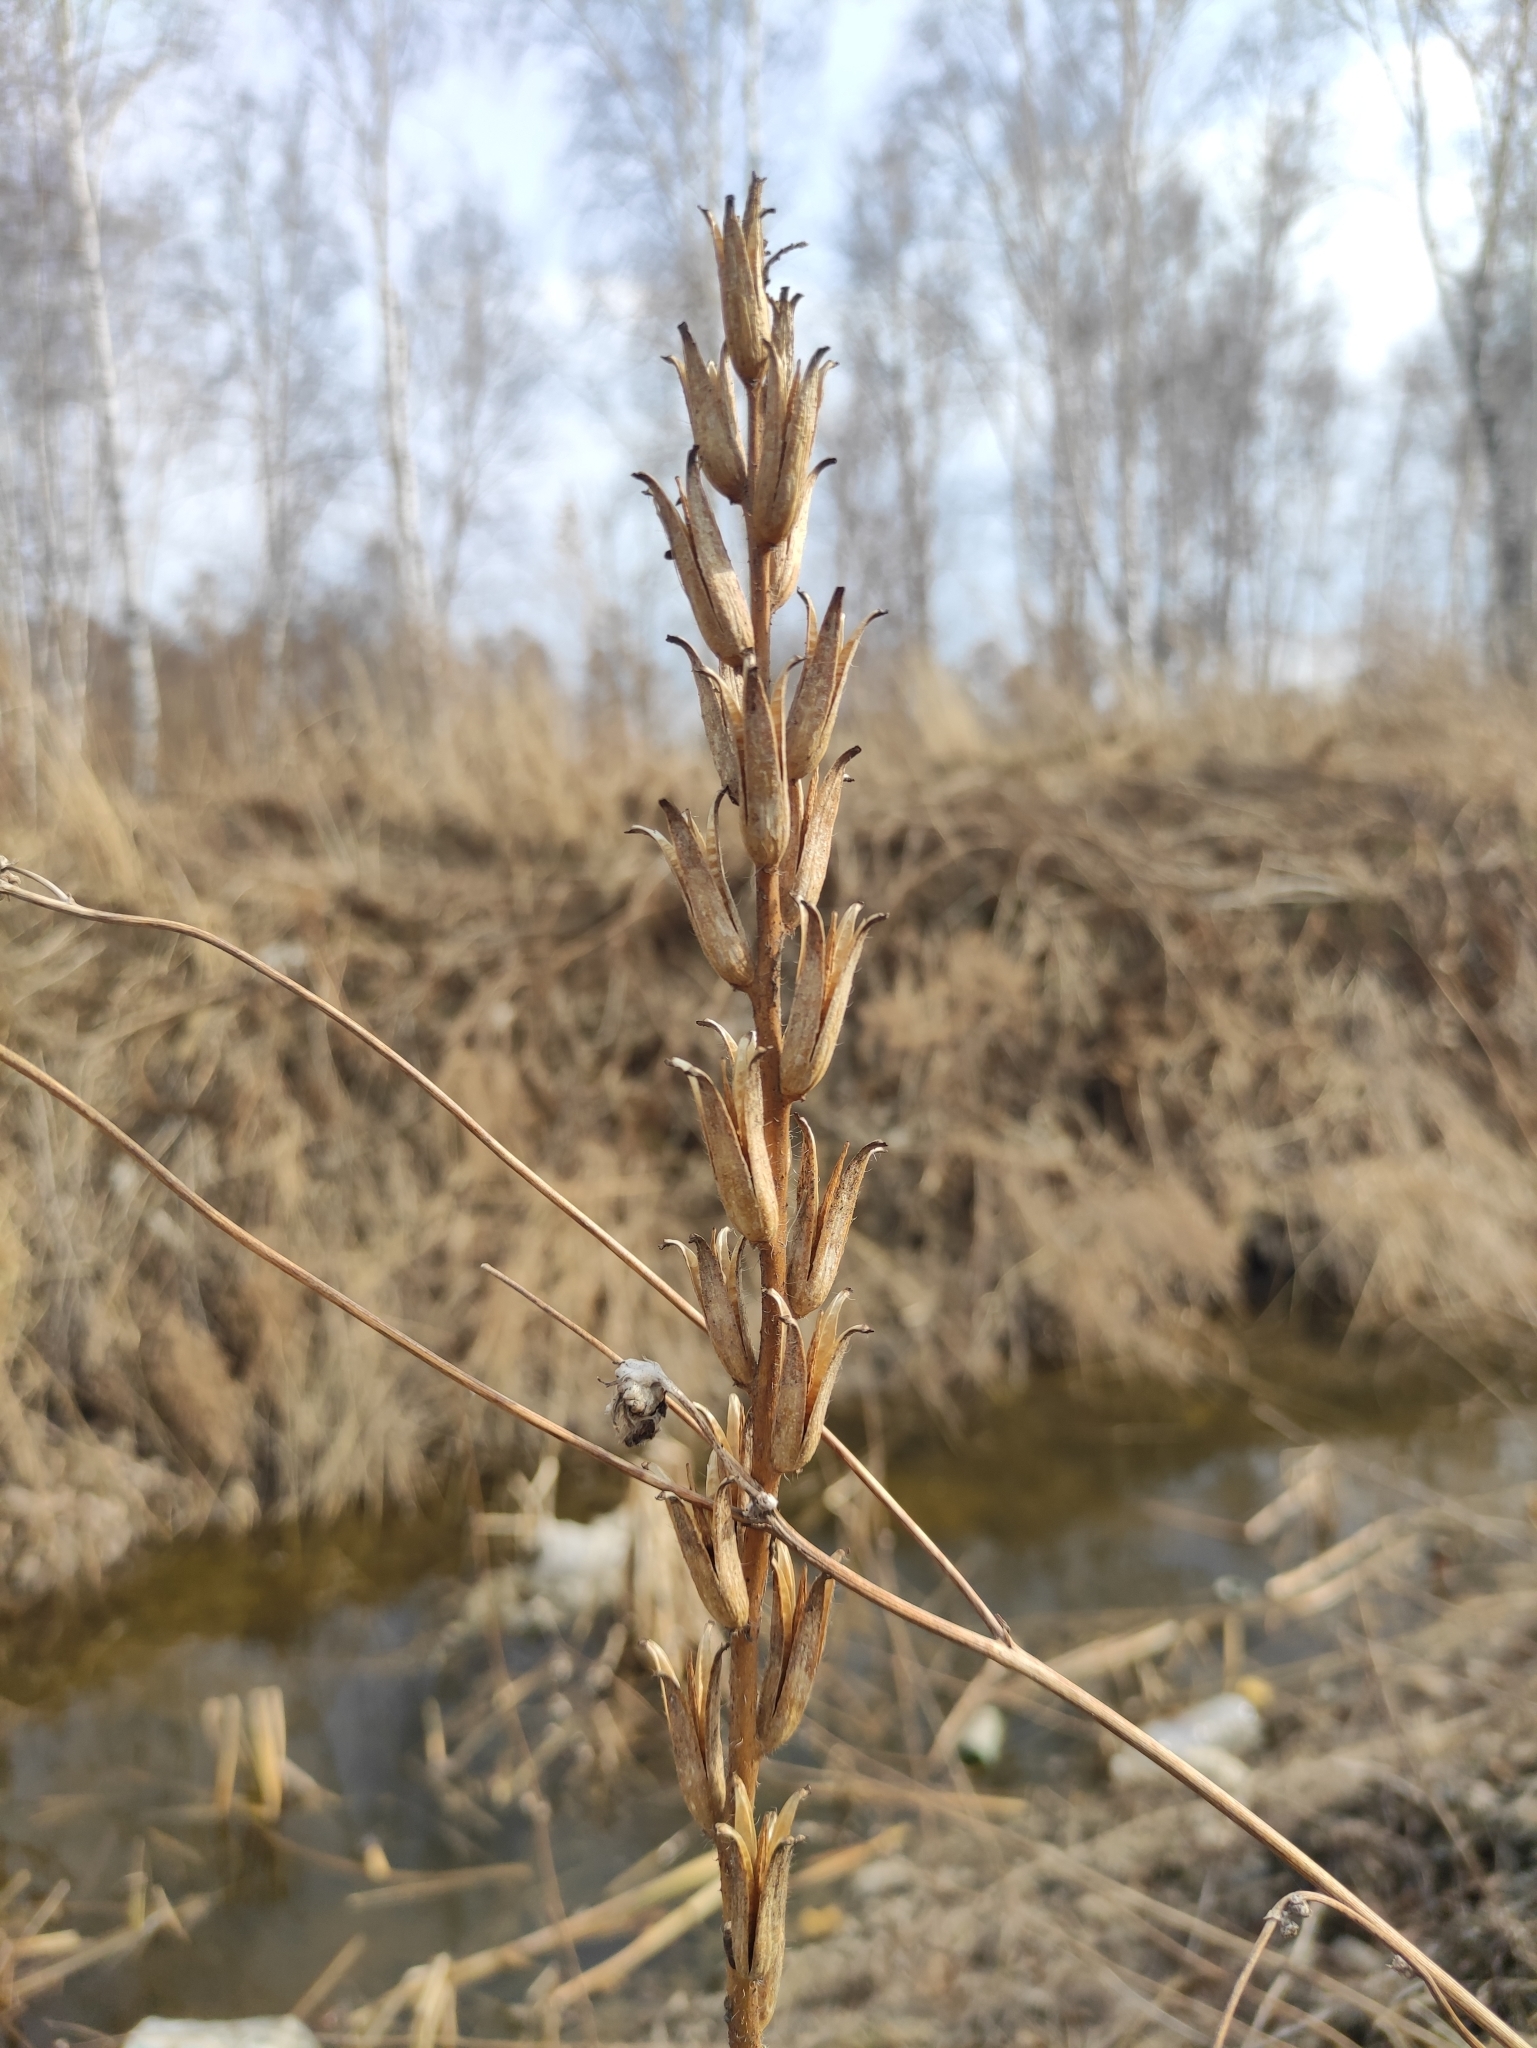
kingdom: Plantae
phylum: Tracheophyta
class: Magnoliopsida
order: Myrtales
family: Onagraceae
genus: Oenothera
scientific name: Oenothera
